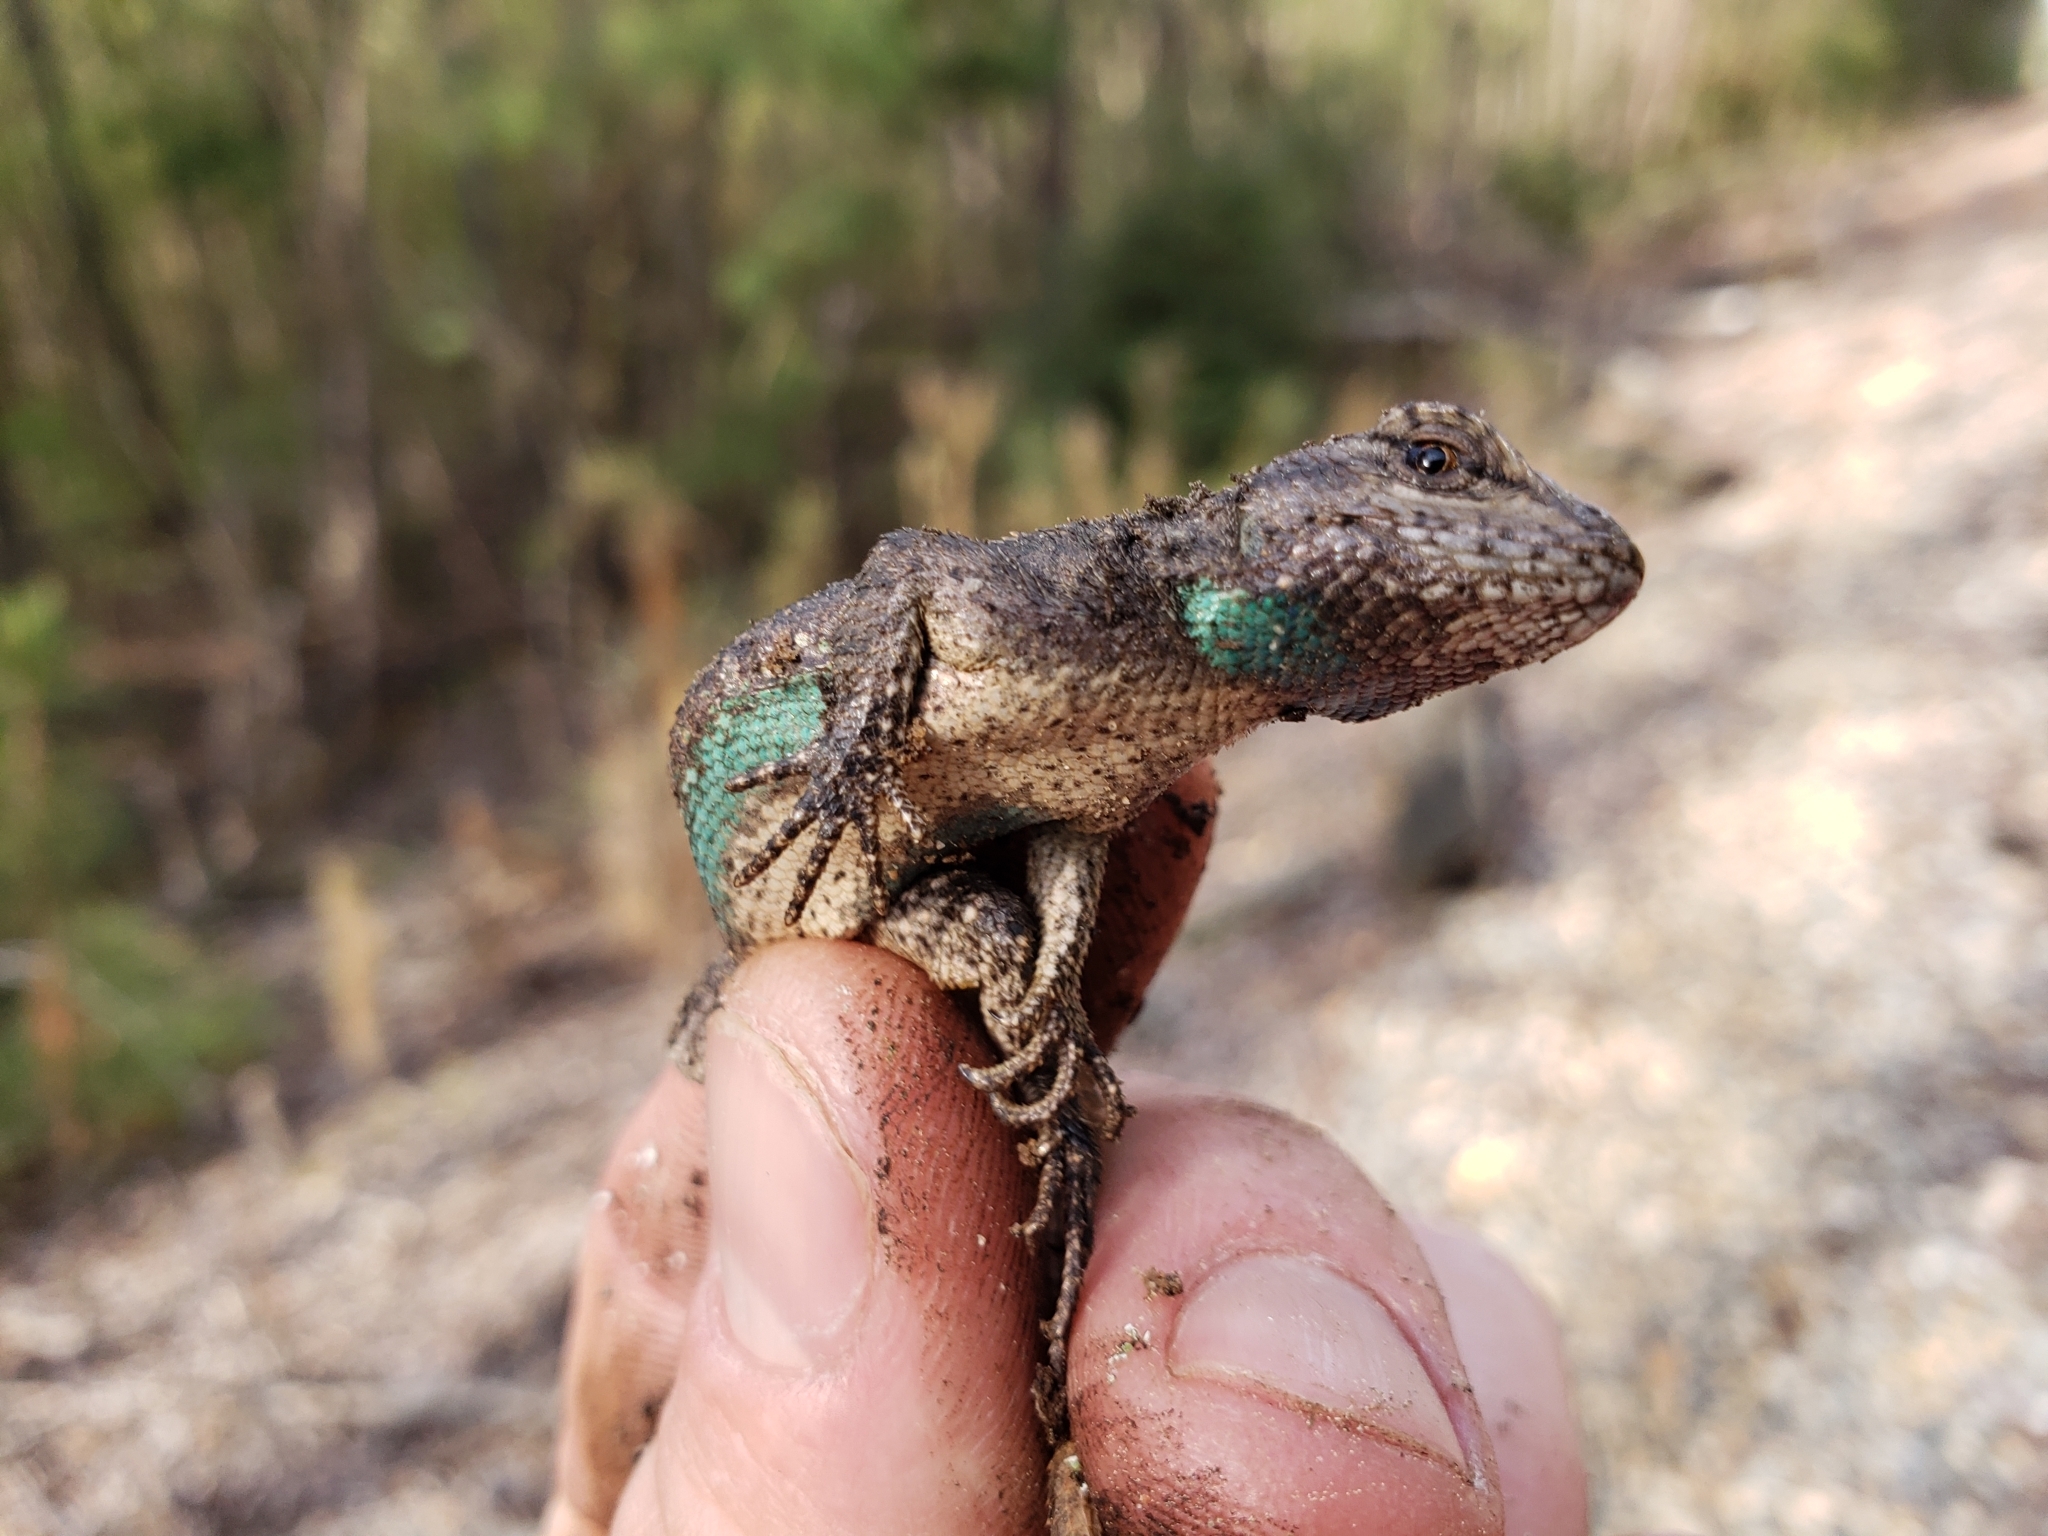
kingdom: Animalia
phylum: Chordata
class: Squamata
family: Phrynosomatidae
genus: Sceloporus
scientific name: Sceloporus consobrinus
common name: Southern prairie lizard
